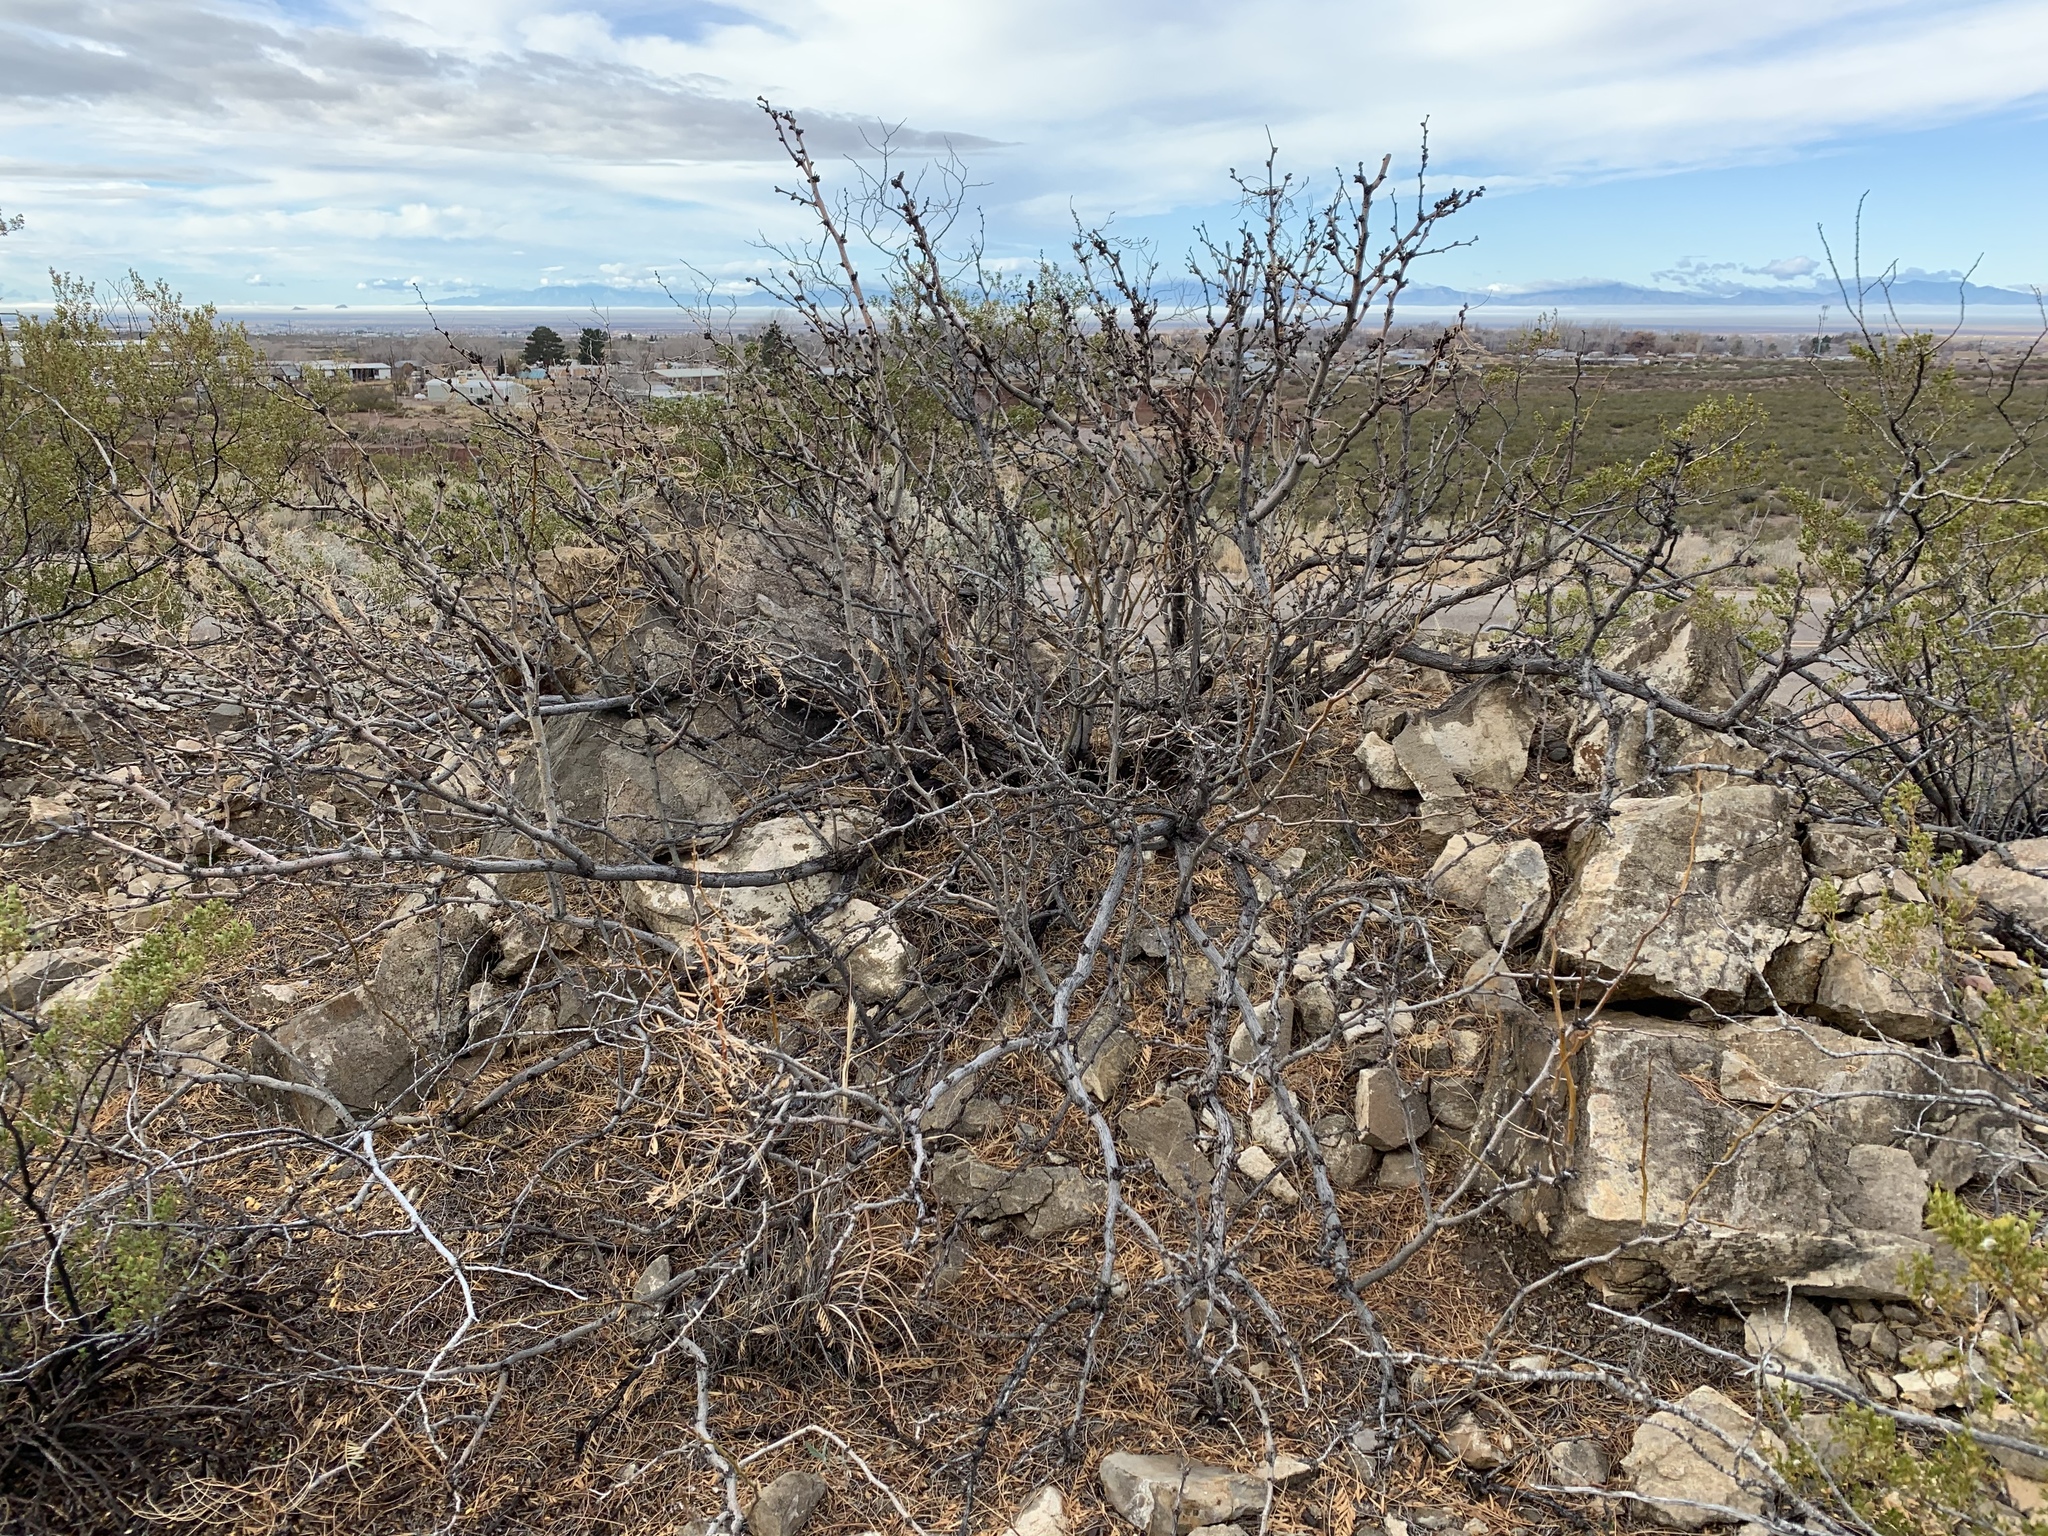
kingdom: Plantae
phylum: Tracheophyta
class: Magnoliopsida
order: Fabales
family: Fabaceae
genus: Prosopis
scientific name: Prosopis glandulosa
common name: Honey mesquite
